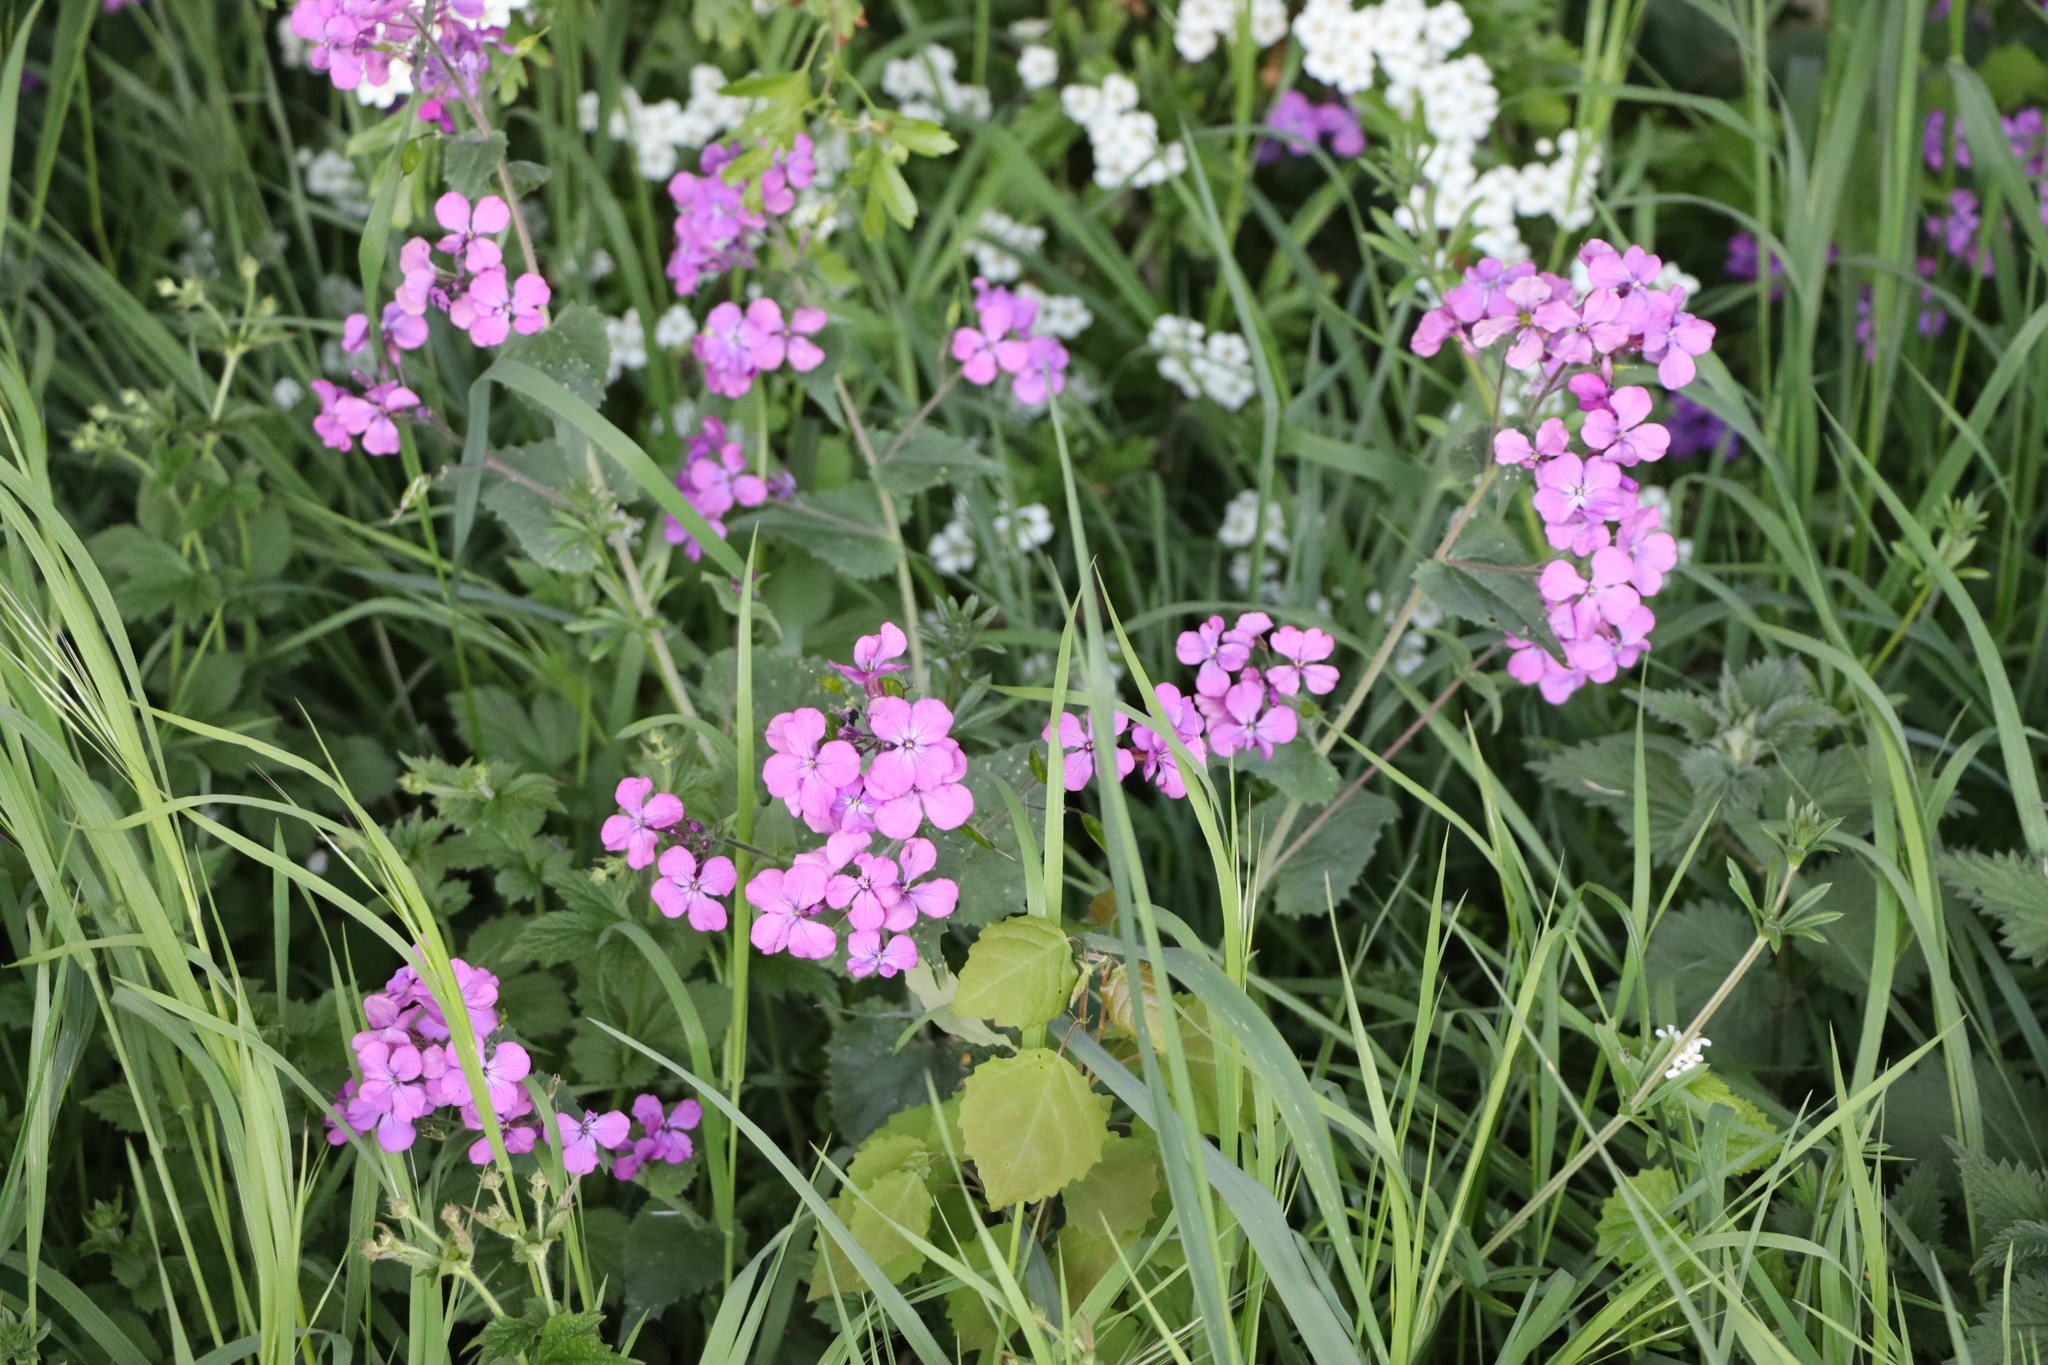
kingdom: Plantae
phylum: Tracheophyta
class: Magnoliopsida
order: Brassicales
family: Brassicaceae
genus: Lunaria
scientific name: Lunaria annua
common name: Honesty
